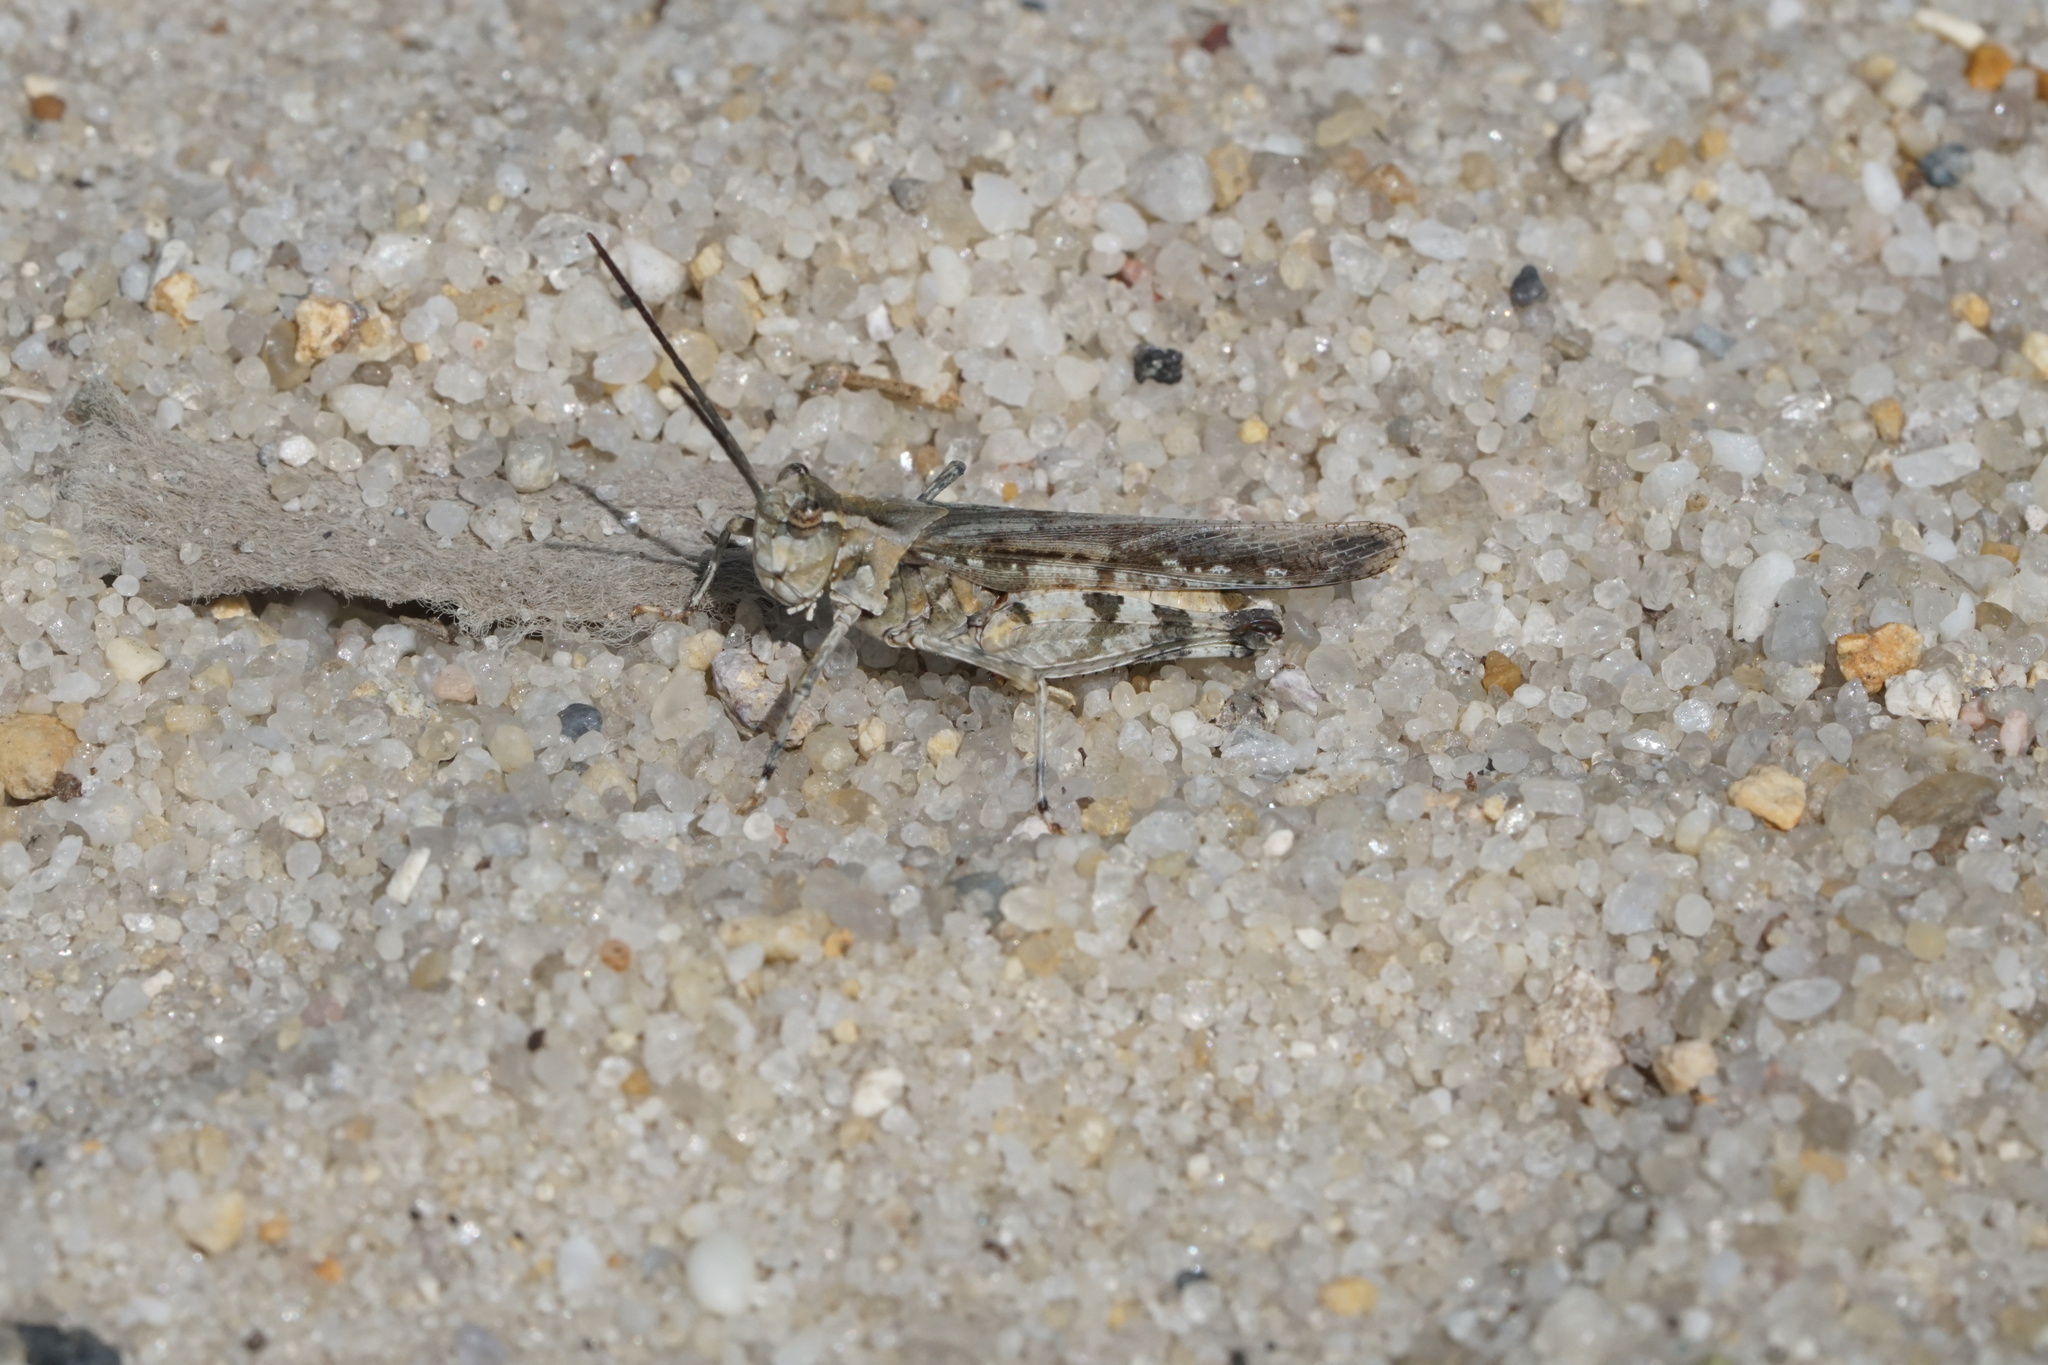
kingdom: Animalia
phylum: Arthropoda
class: Insecta
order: Orthoptera
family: Acrididae
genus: Psinidia
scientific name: Psinidia fenestralis
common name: Long-horned locust
